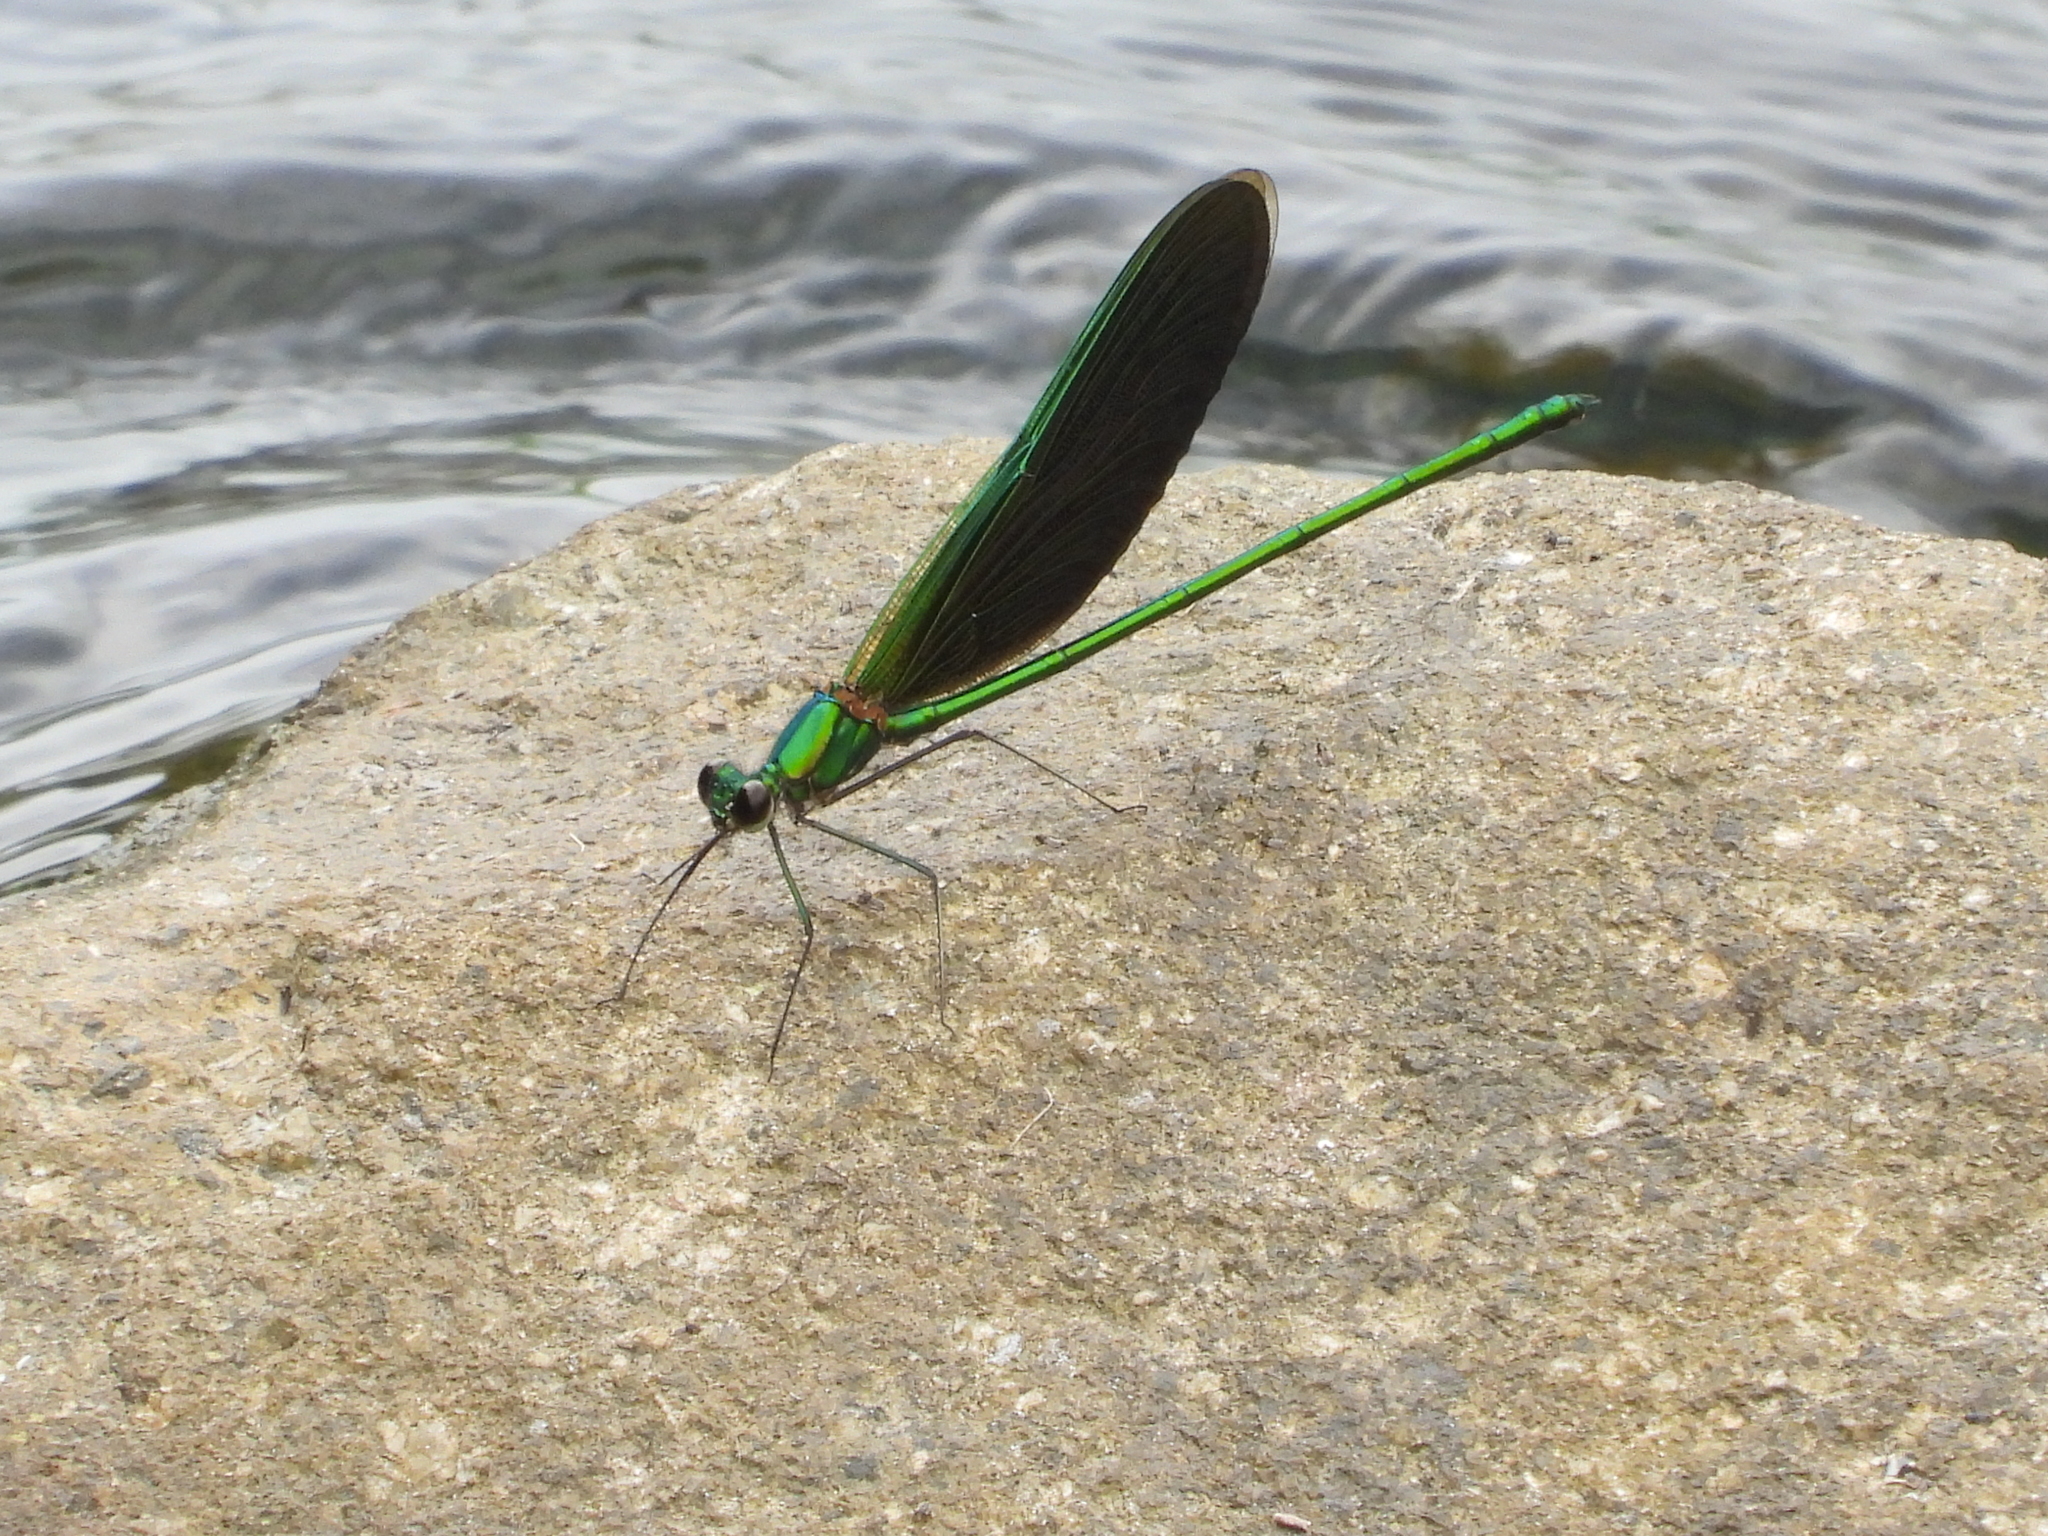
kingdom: Animalia
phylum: Arthropoda
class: Insecta
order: Odonata
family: Calopterygidae
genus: Neurobasis
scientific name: Neurobasis chinensis
